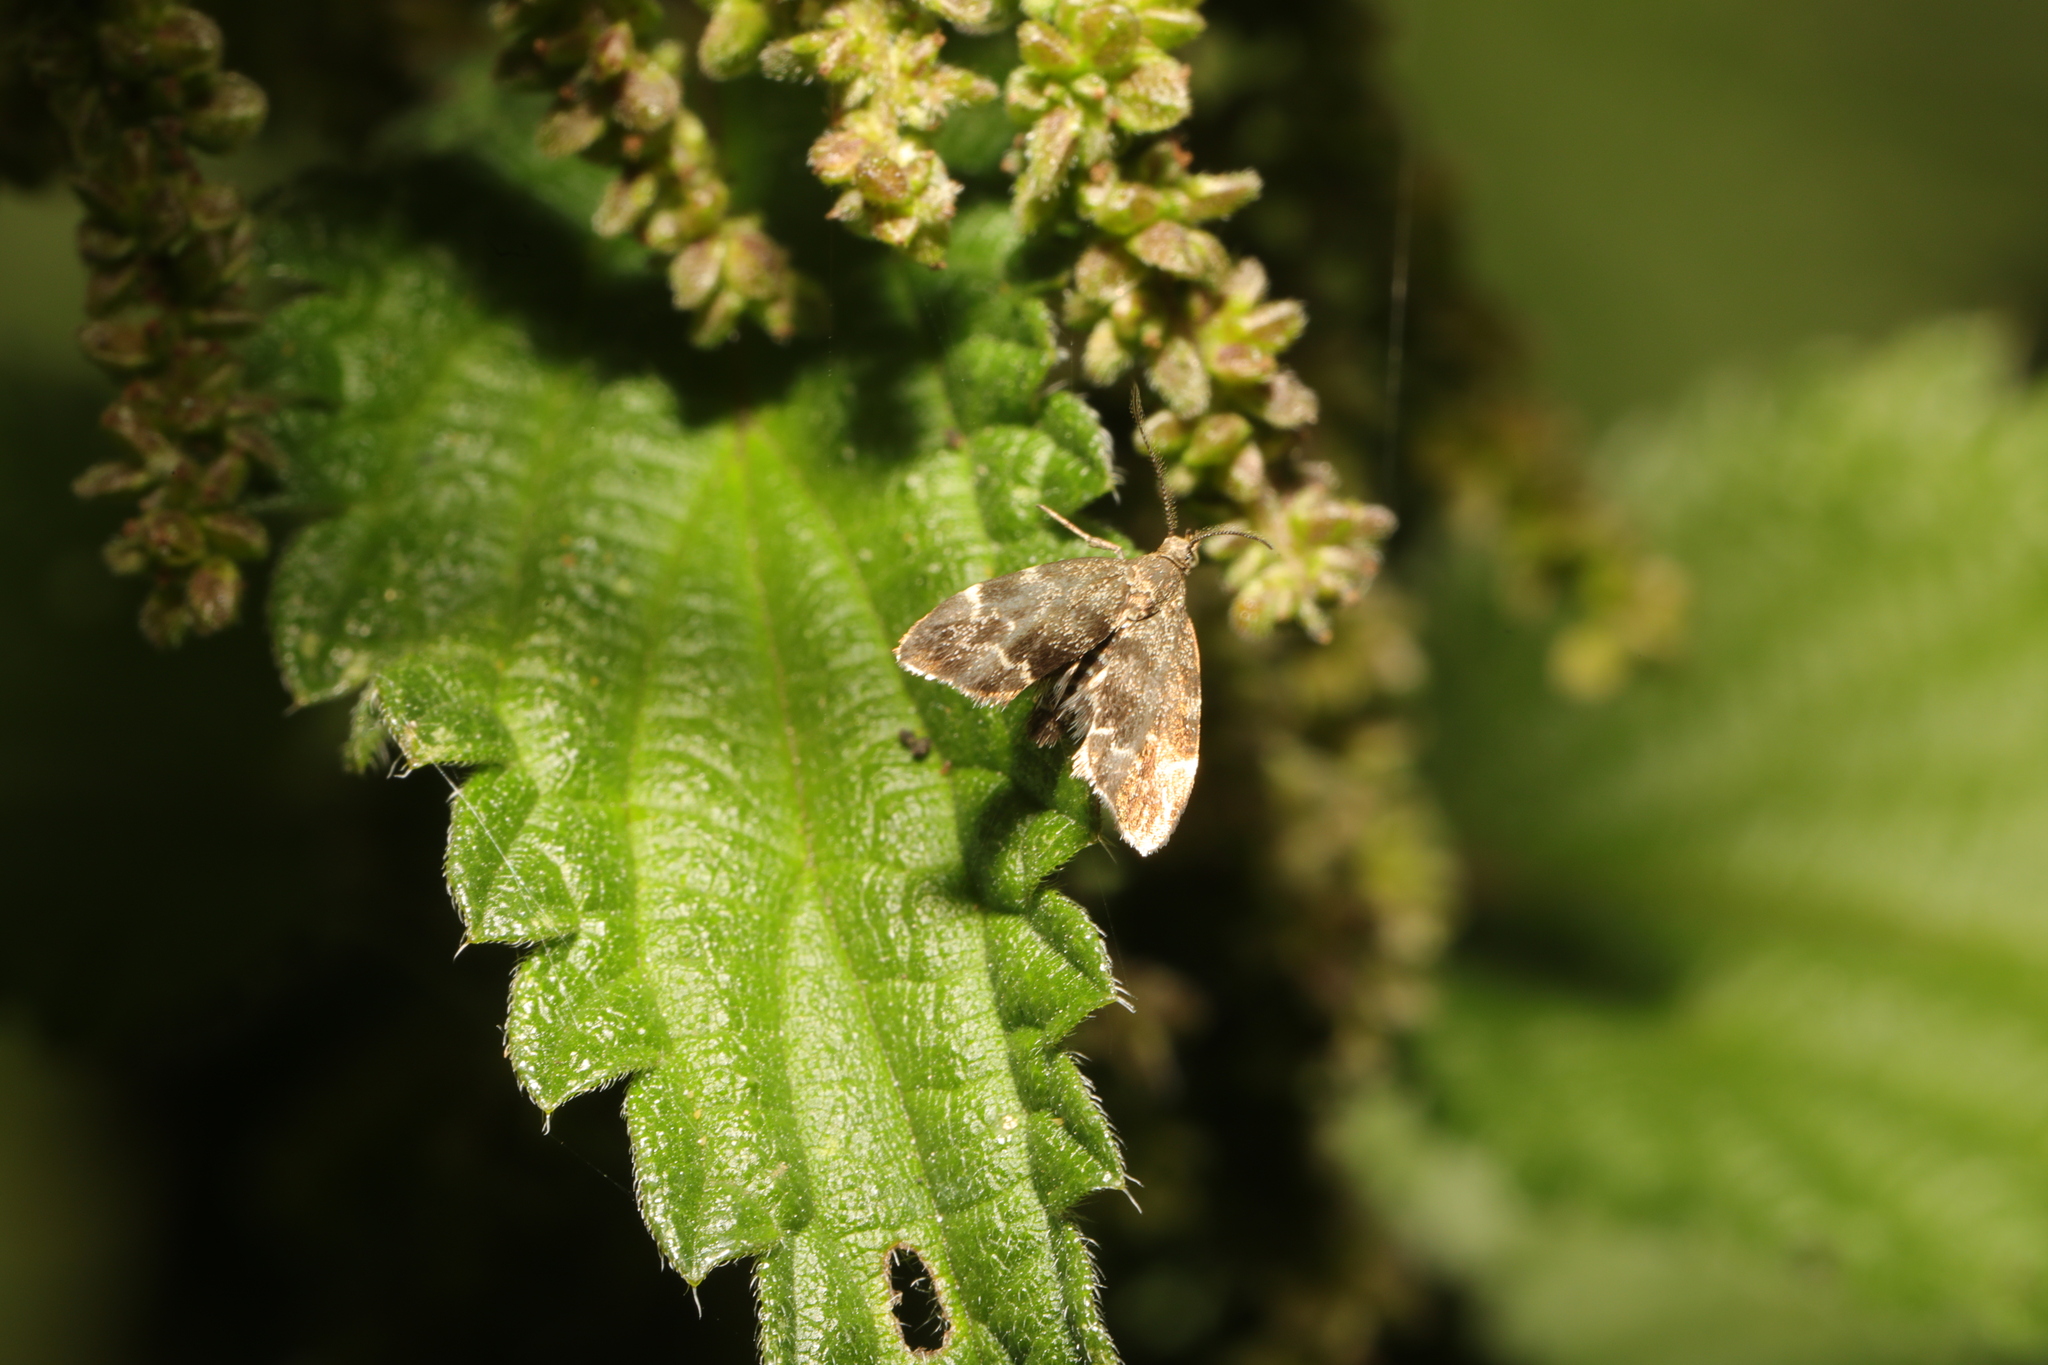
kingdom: Animalia
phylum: Arthropoda
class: Insecta
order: Lepidoptera
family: Choreutidae
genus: Anthophila
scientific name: Anthophila fabriciana
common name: Nettle-tap
